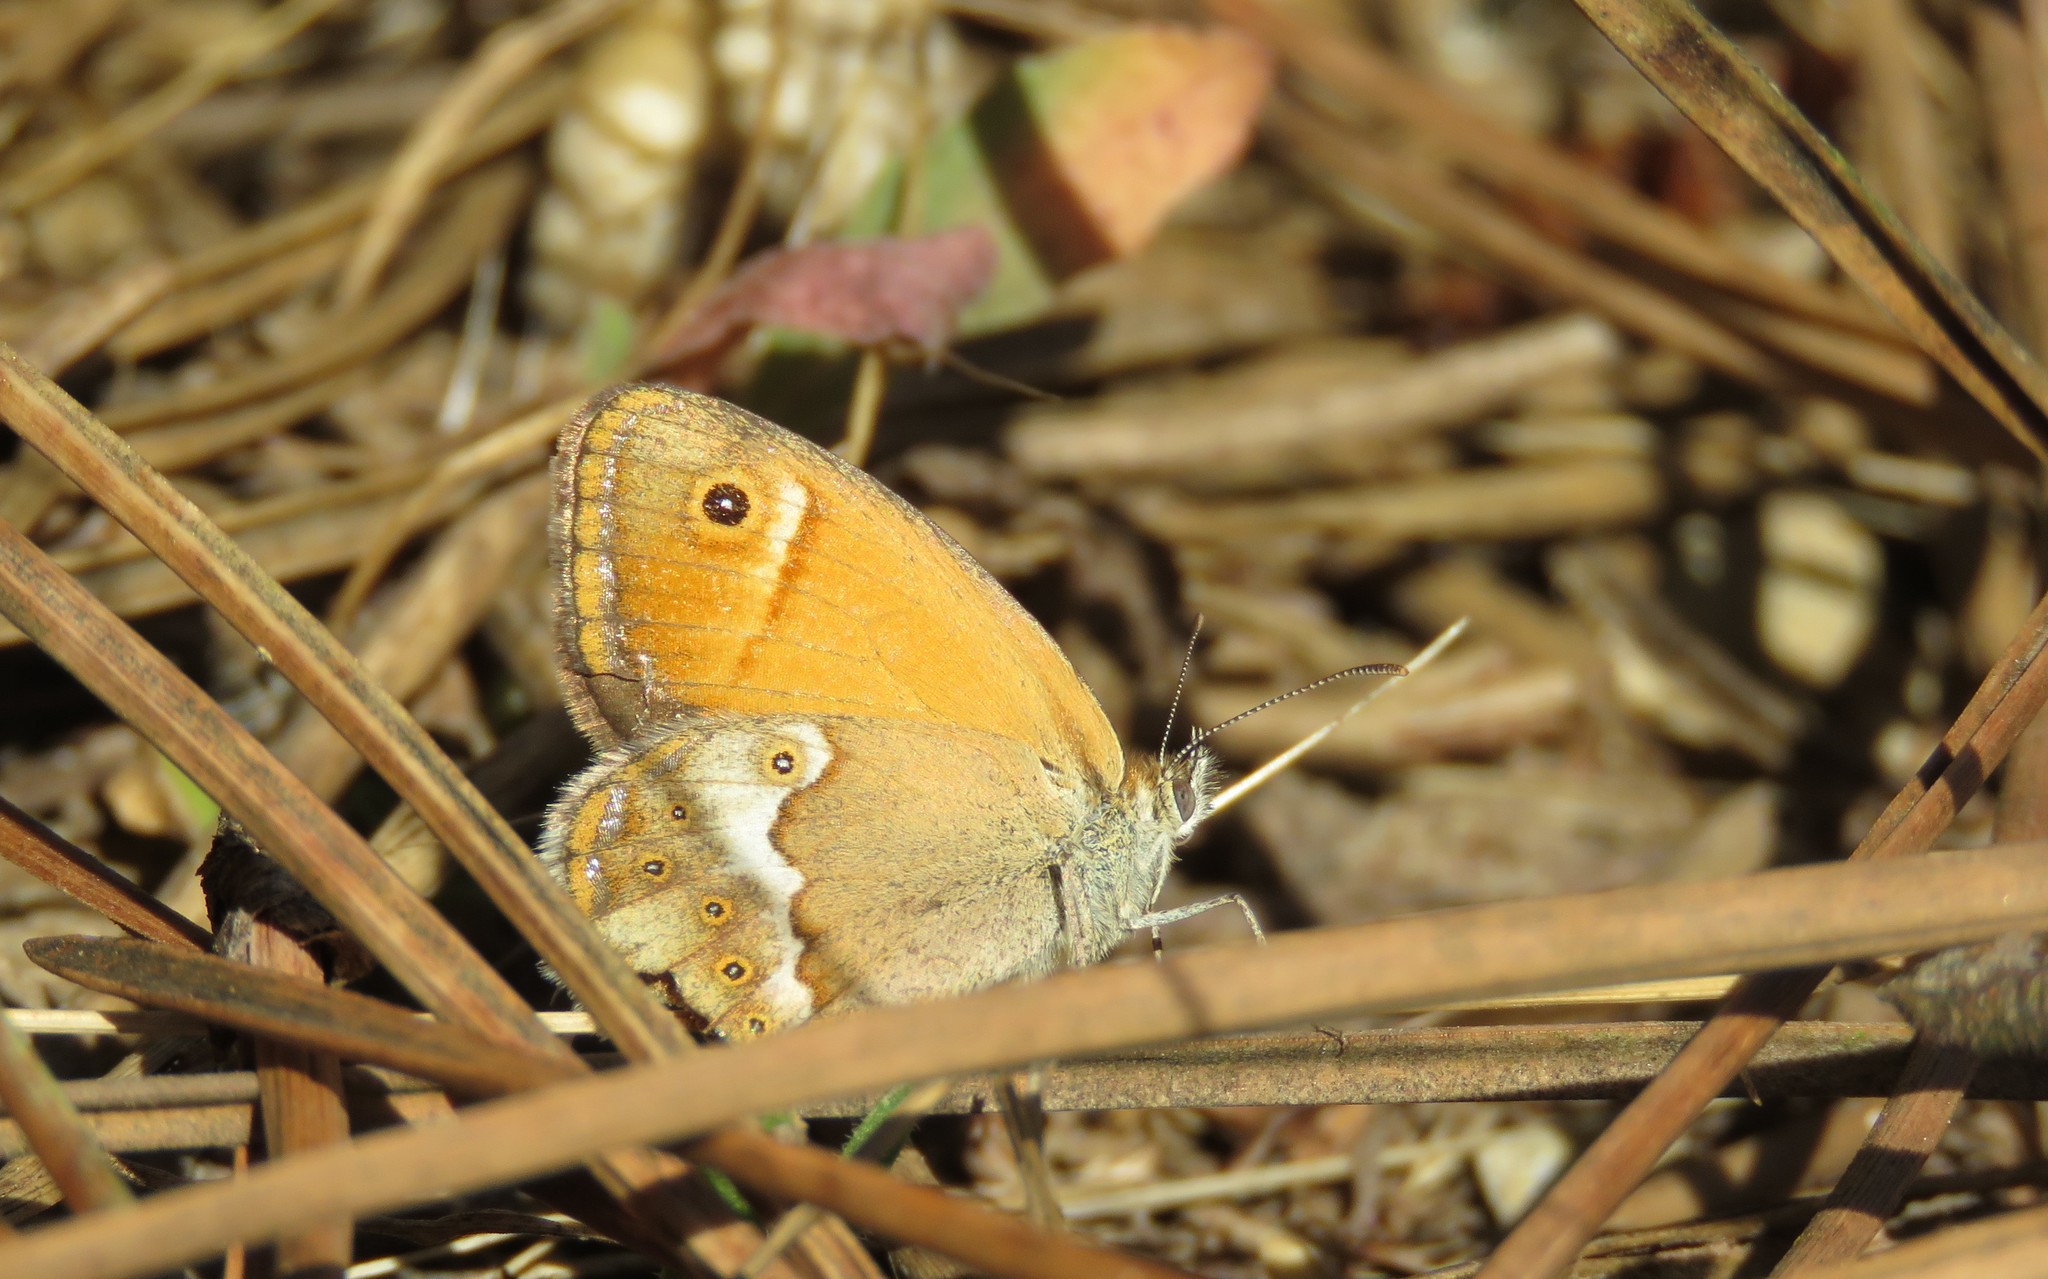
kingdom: Animalia
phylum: Arthropoda
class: Insecta
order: Lepidoptera
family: Nymphalidae
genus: Coenonympha
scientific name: Coenonympha dorus
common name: Dusky heath
